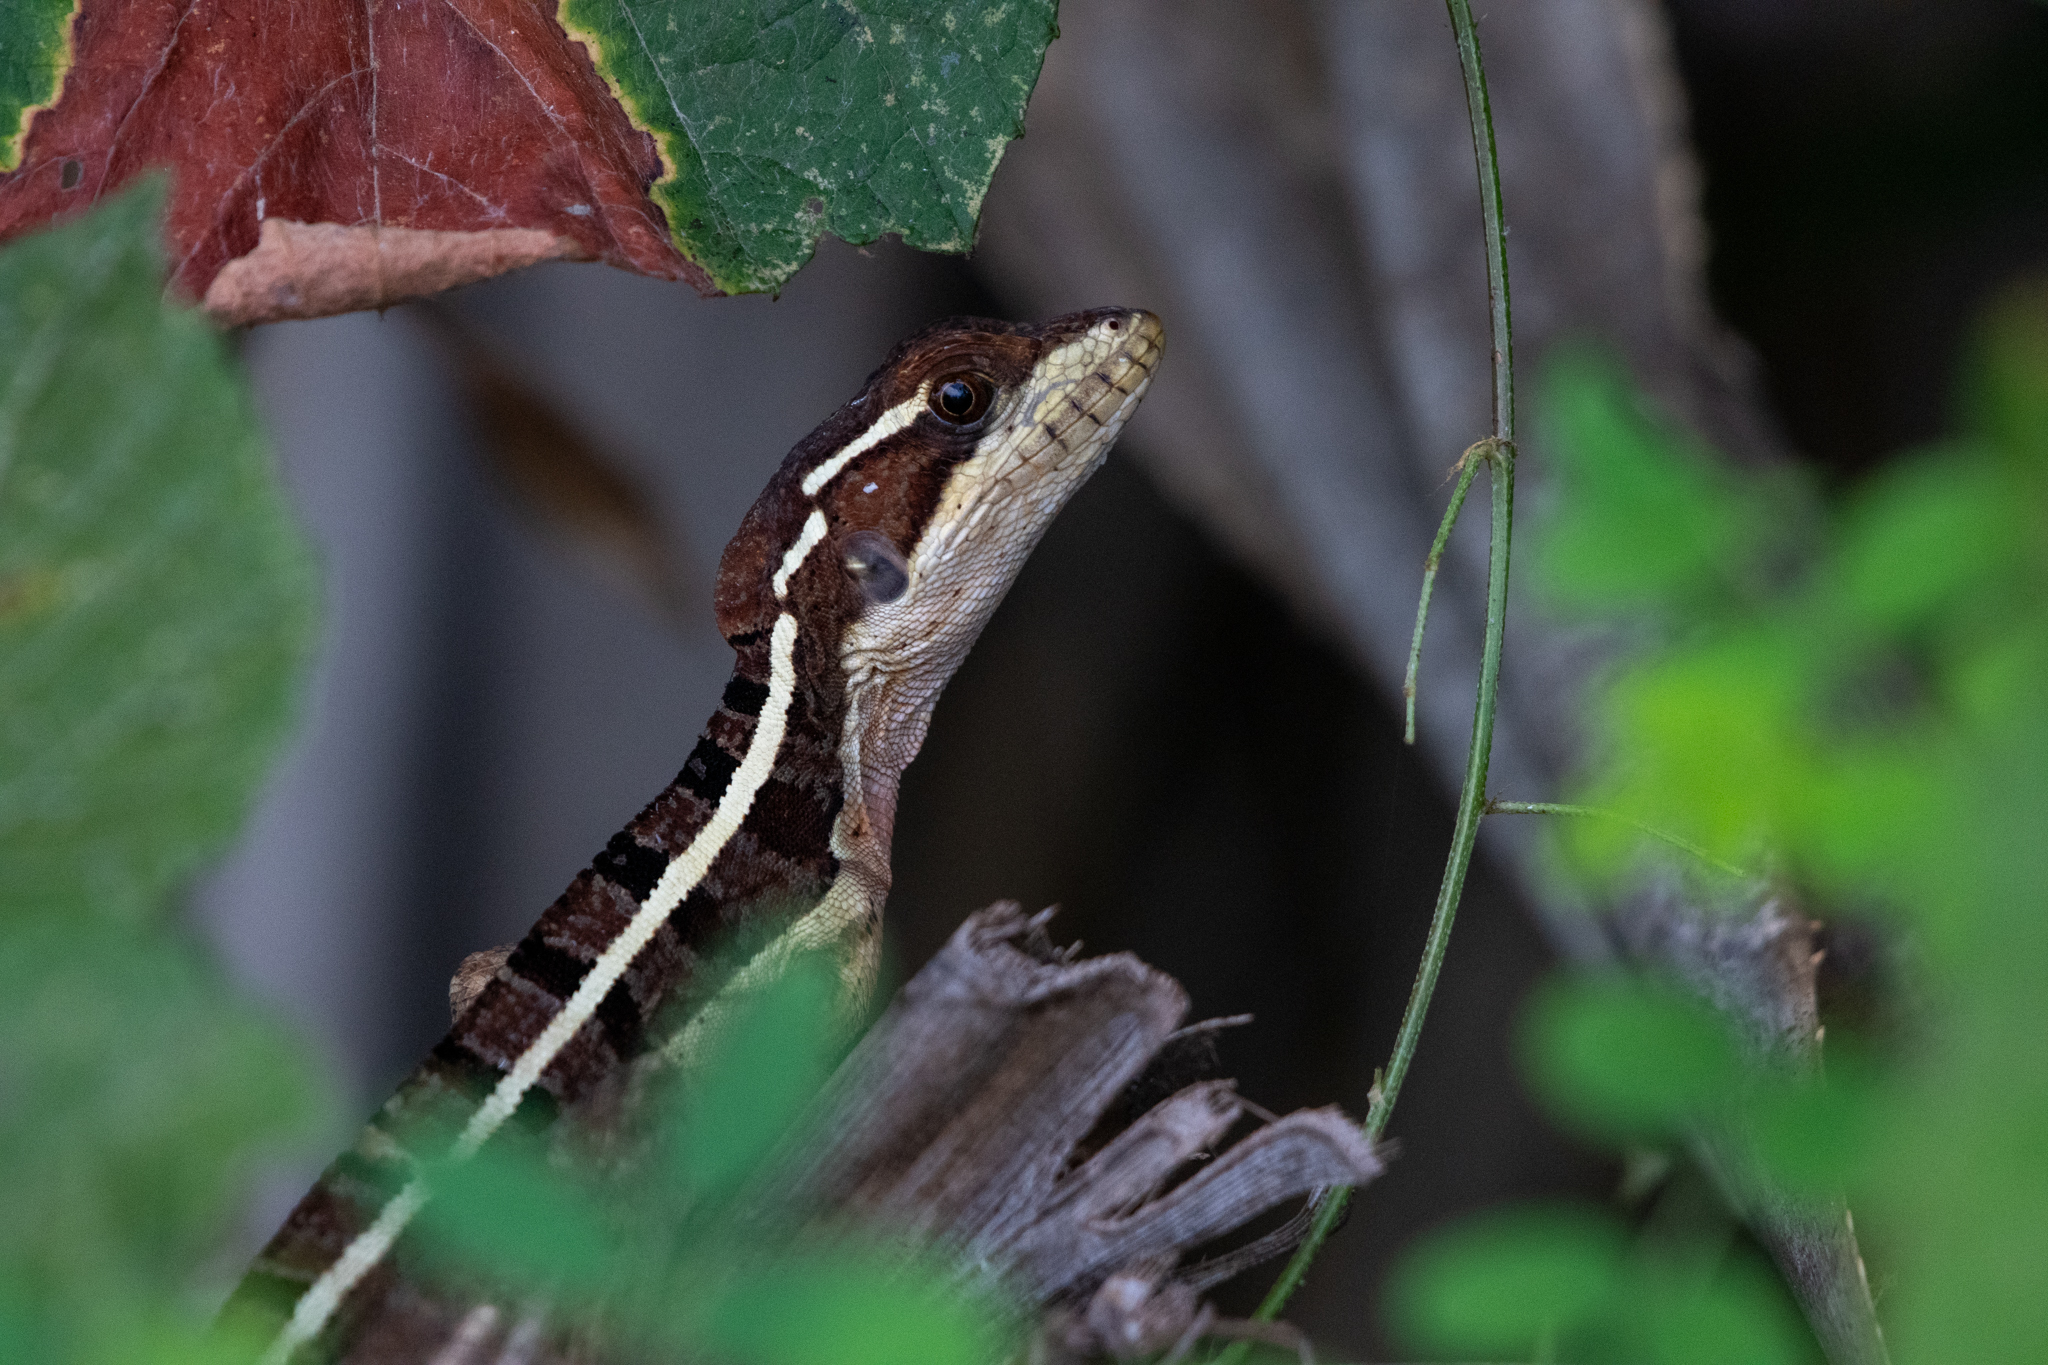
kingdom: Animalia
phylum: Chordata
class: Squamata
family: Corytophanidae
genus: Basiliscus
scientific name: Basiliscus vittatus
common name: Brown basilisk
